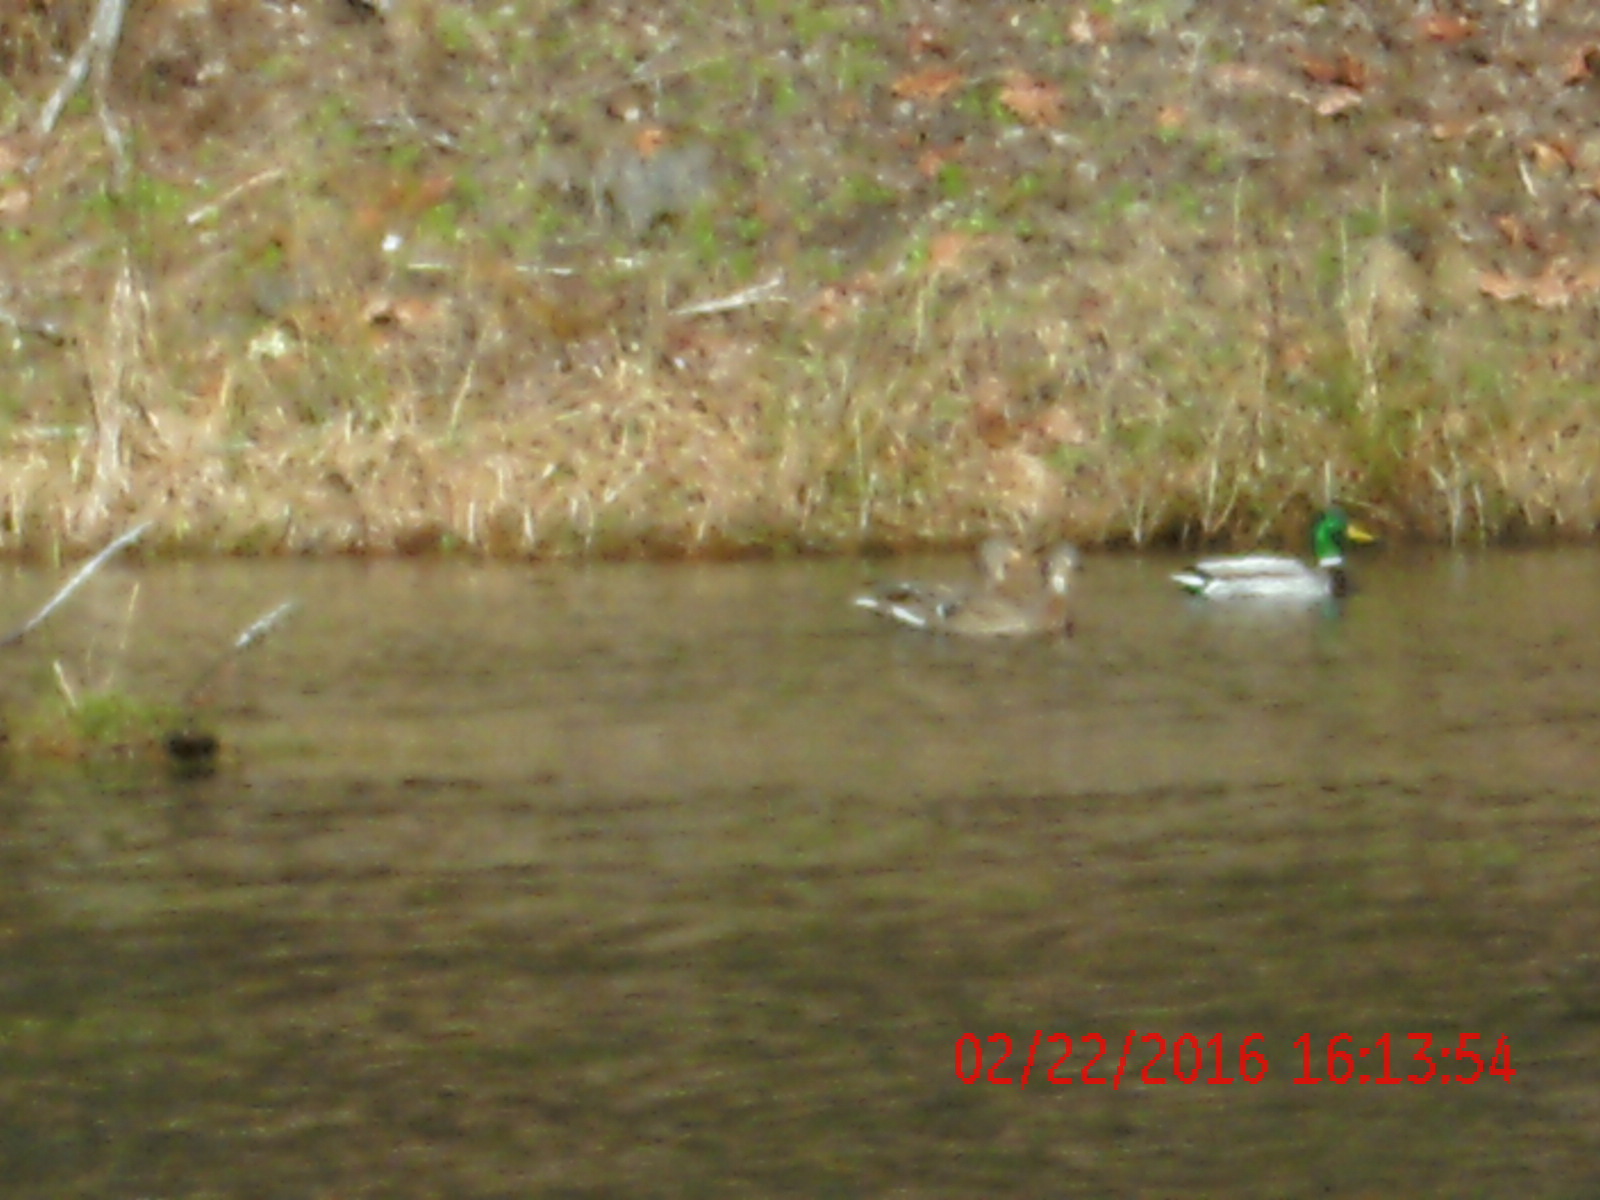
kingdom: Animalia
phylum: Chordata
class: Aves
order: Anseriformes
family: Anatidae
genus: Anas
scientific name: Anas platyrhynchos
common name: Mallard
